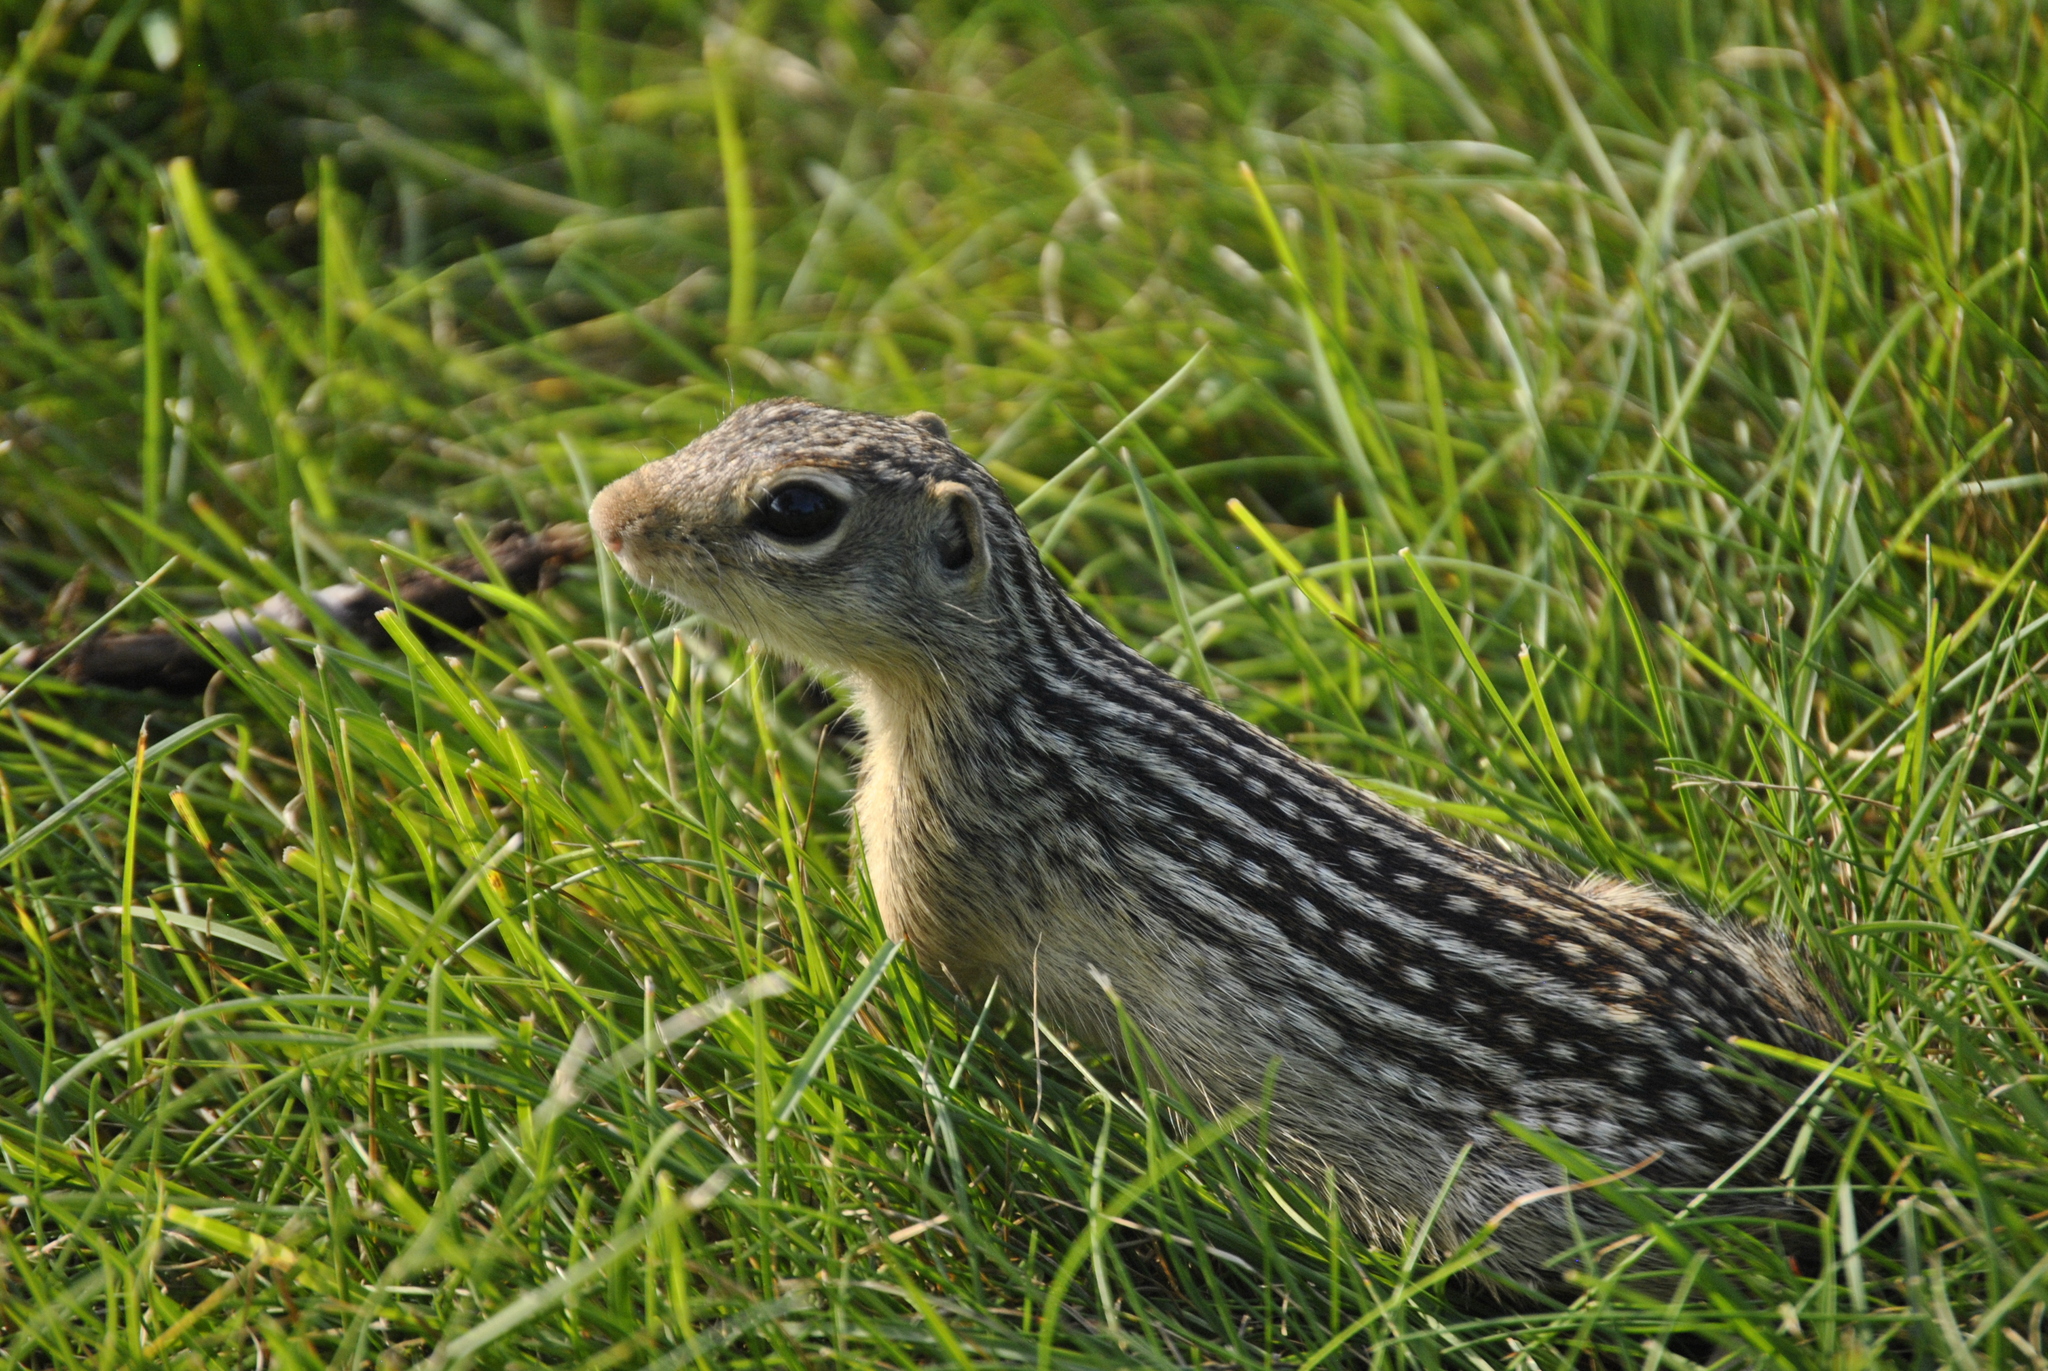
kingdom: Animalia
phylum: Chordata
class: Mammalia
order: Rodentia
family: Sciuridae
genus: Ictidomys
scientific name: Ictidomys tridecemlineatus
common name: Thirteen-lined ground squirrel
